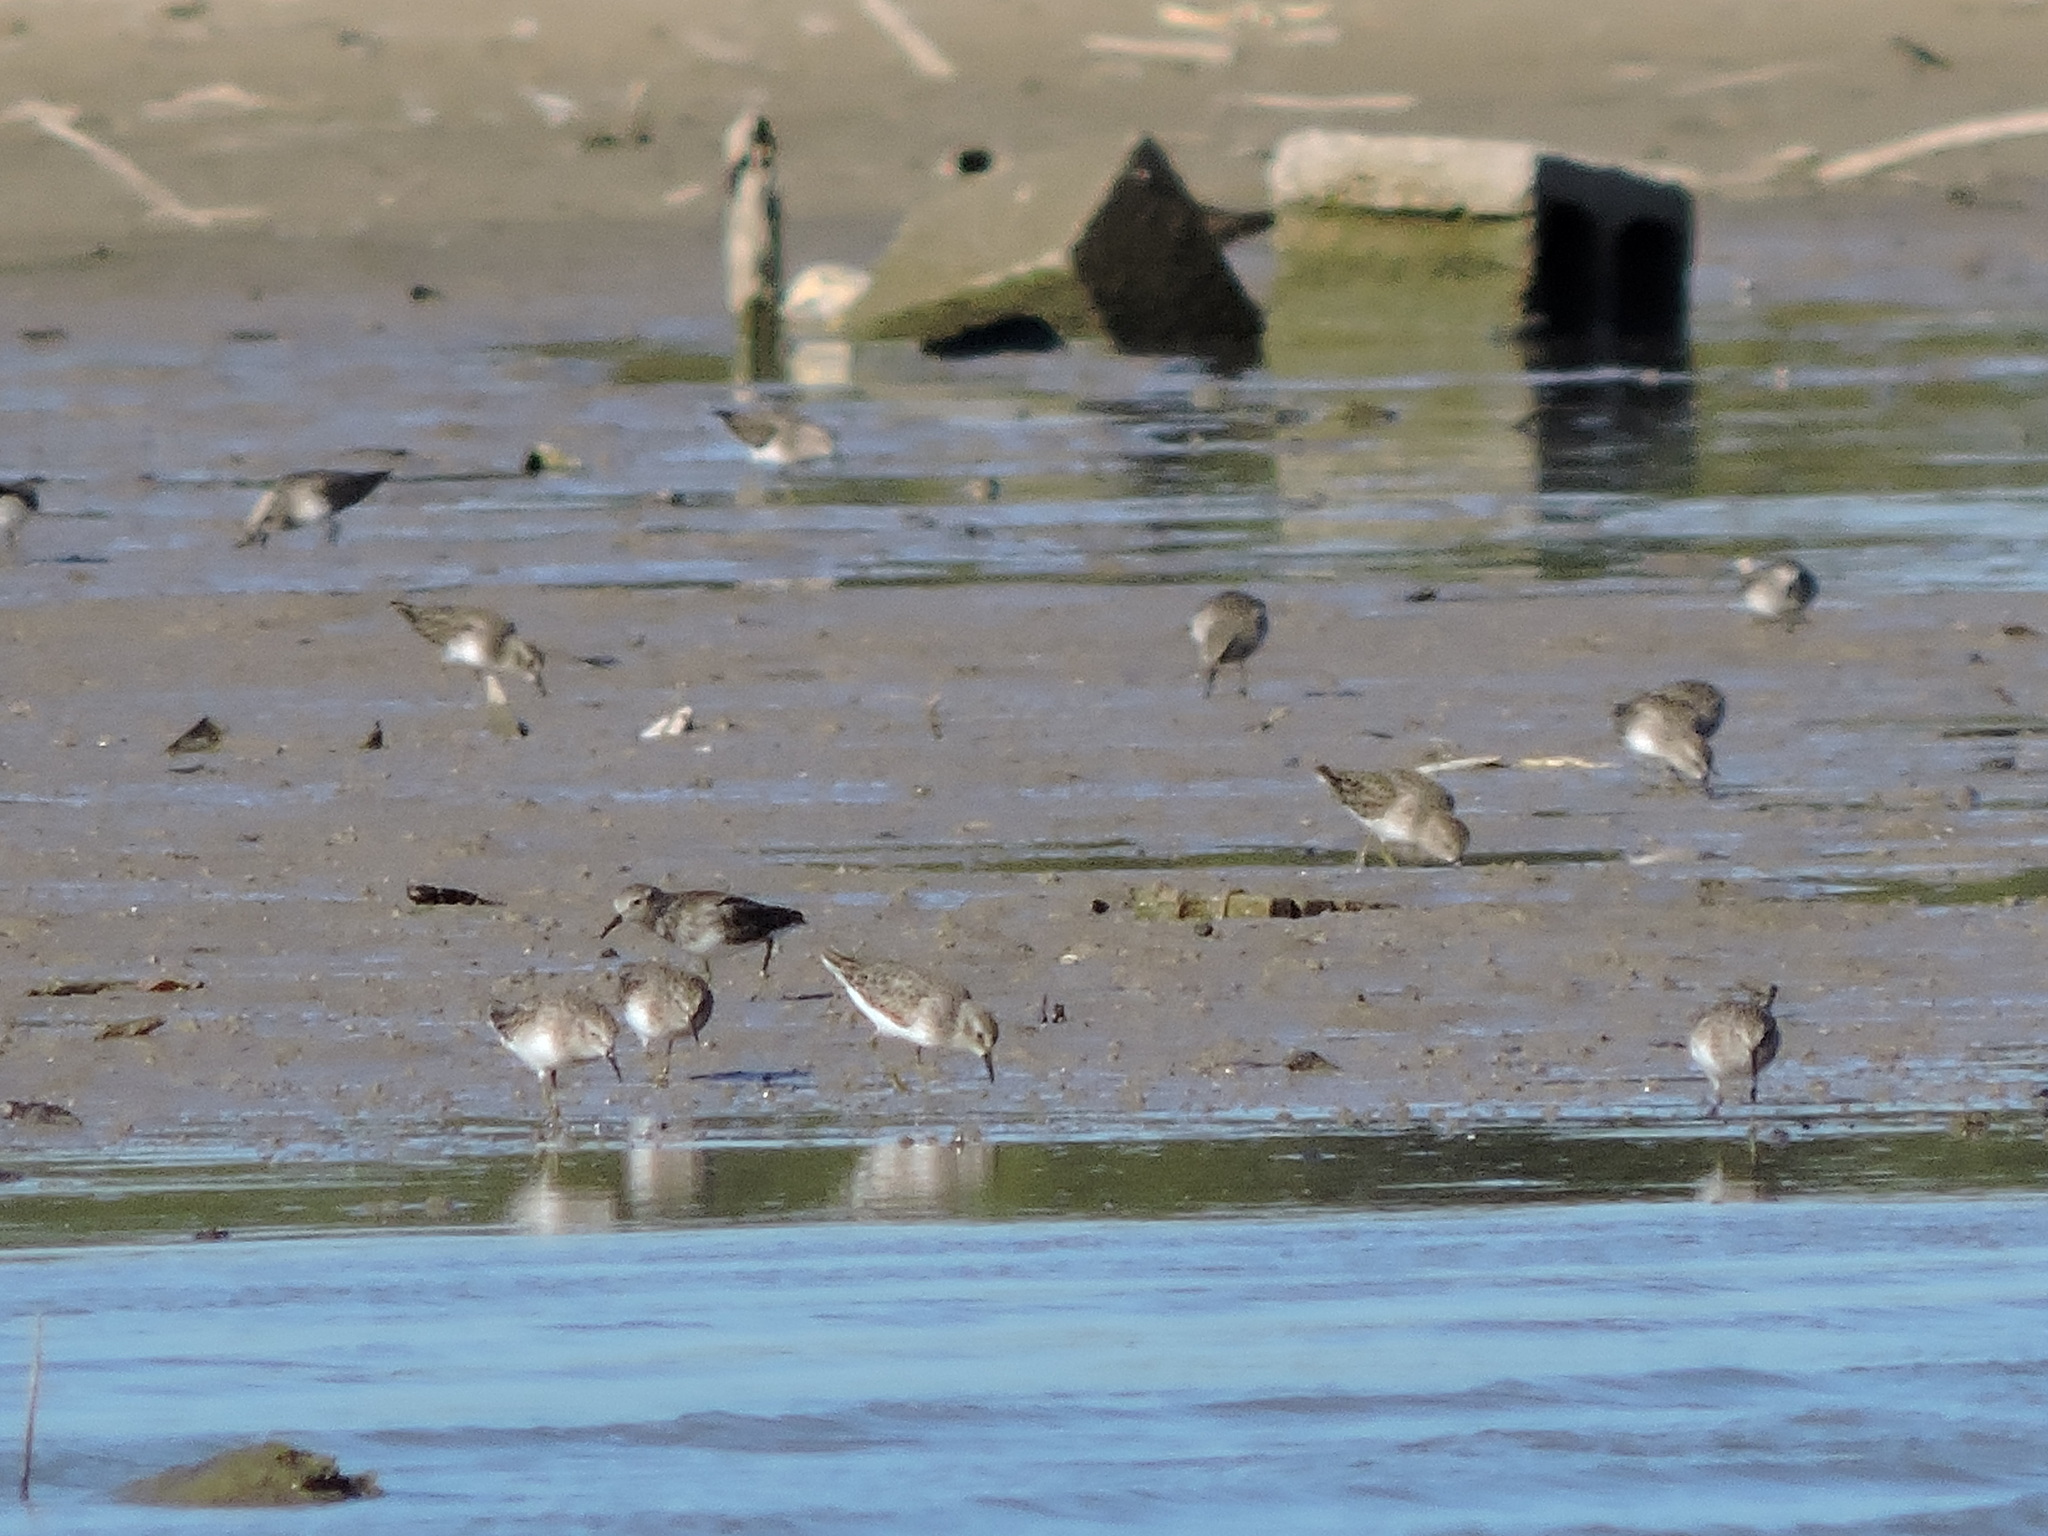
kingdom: Animalia
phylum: Chordata
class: Aves
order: Charadriiformes
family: Scolopacidae
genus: Calidris
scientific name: Calidris minutilla
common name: Least sandpiper
